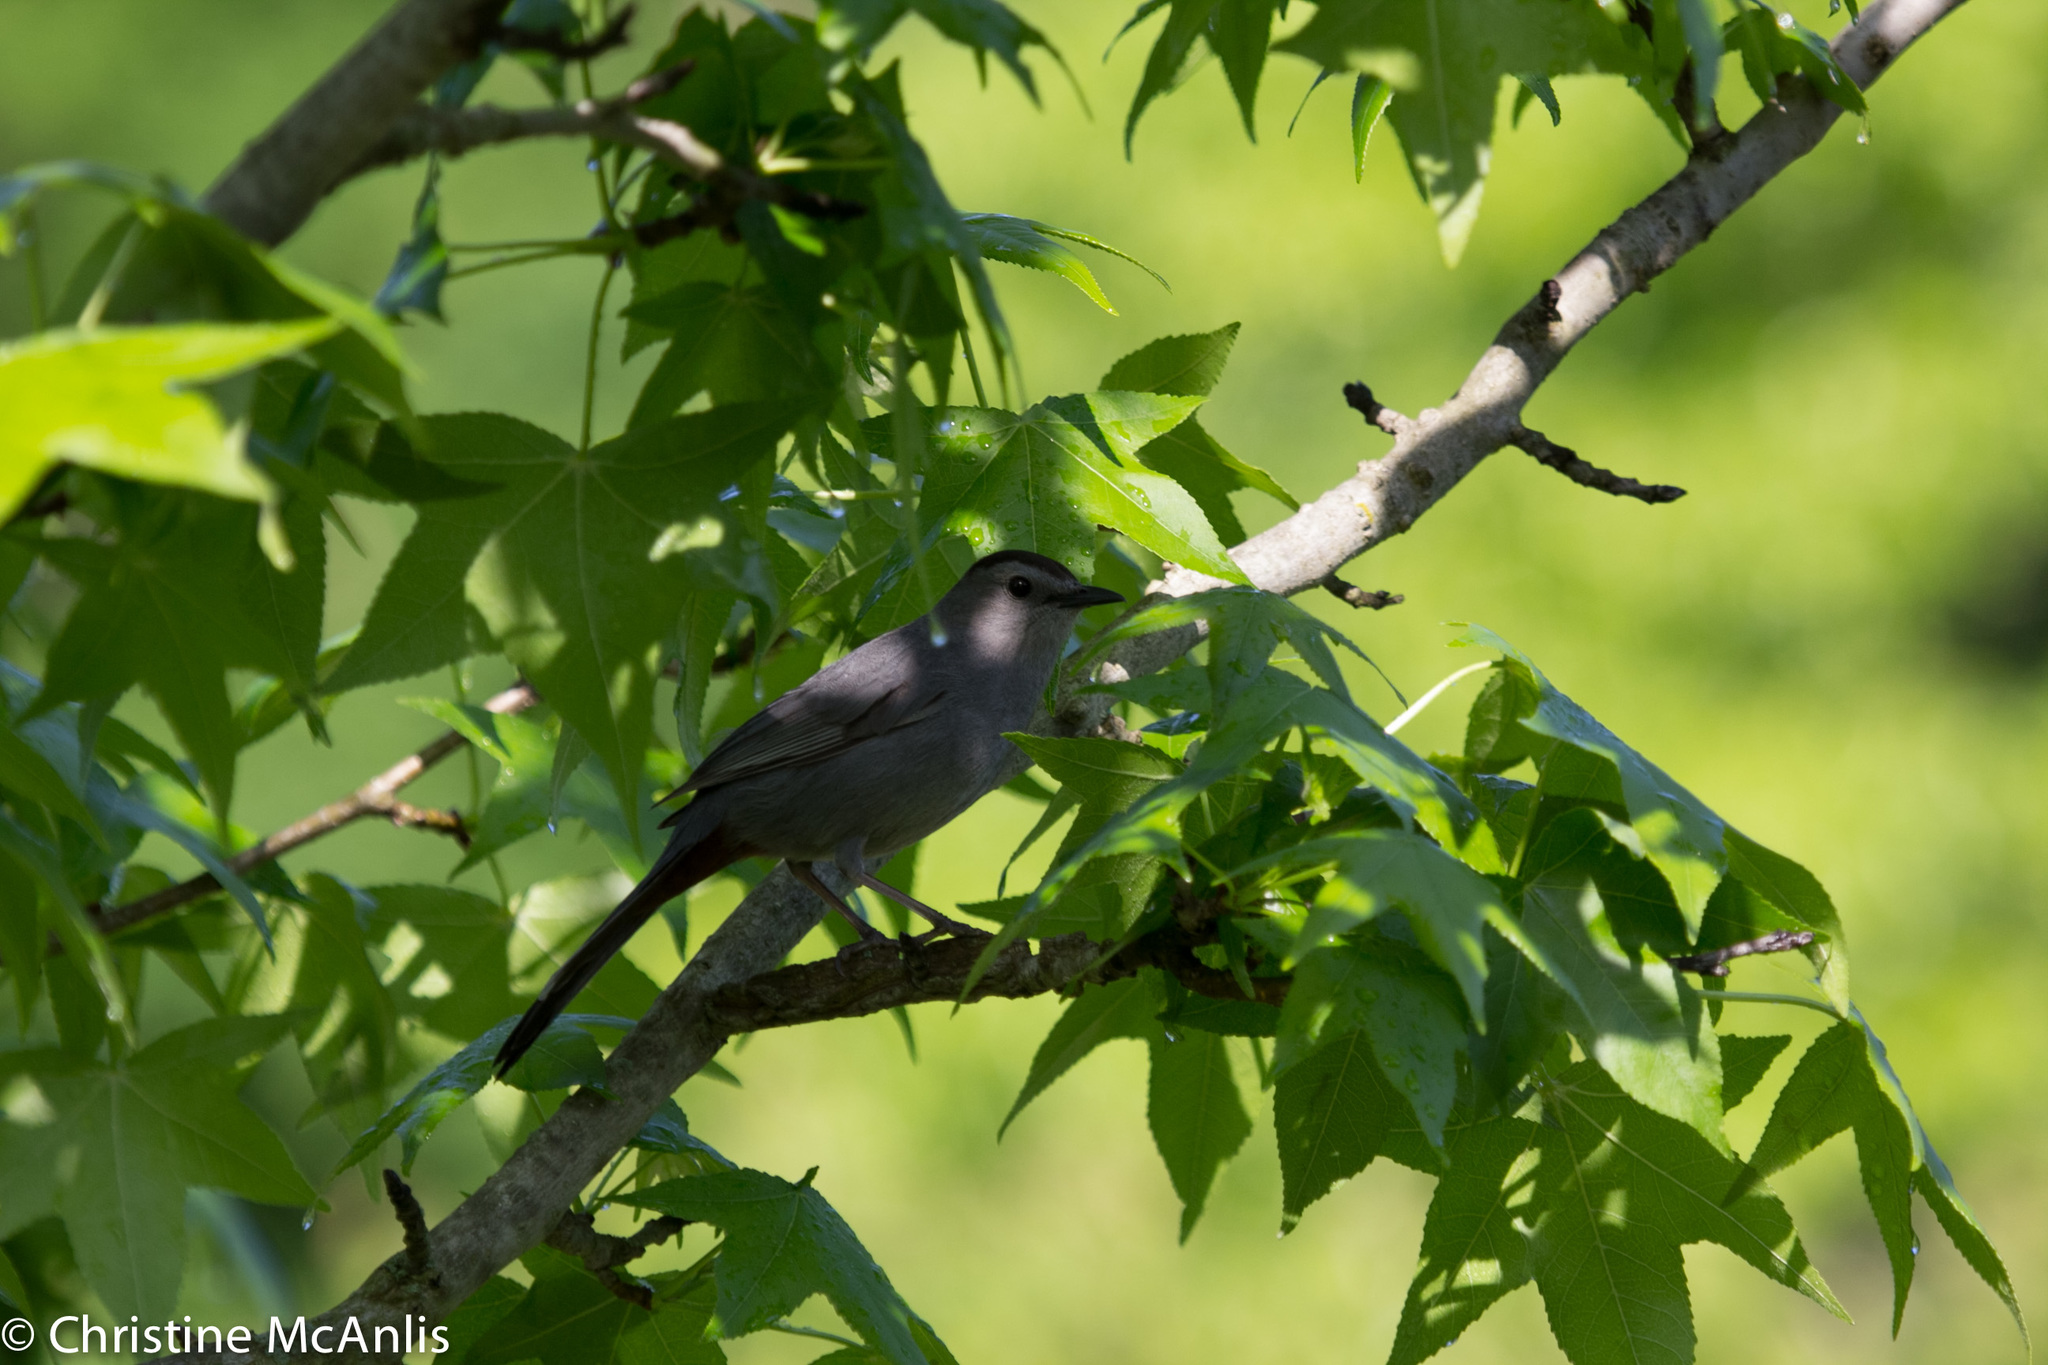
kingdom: Animalia
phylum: Chordata
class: Aves
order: Passeriformes
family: Mimidae
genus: Dumetella
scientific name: Dumetella carolinensis
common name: Gray catbird
